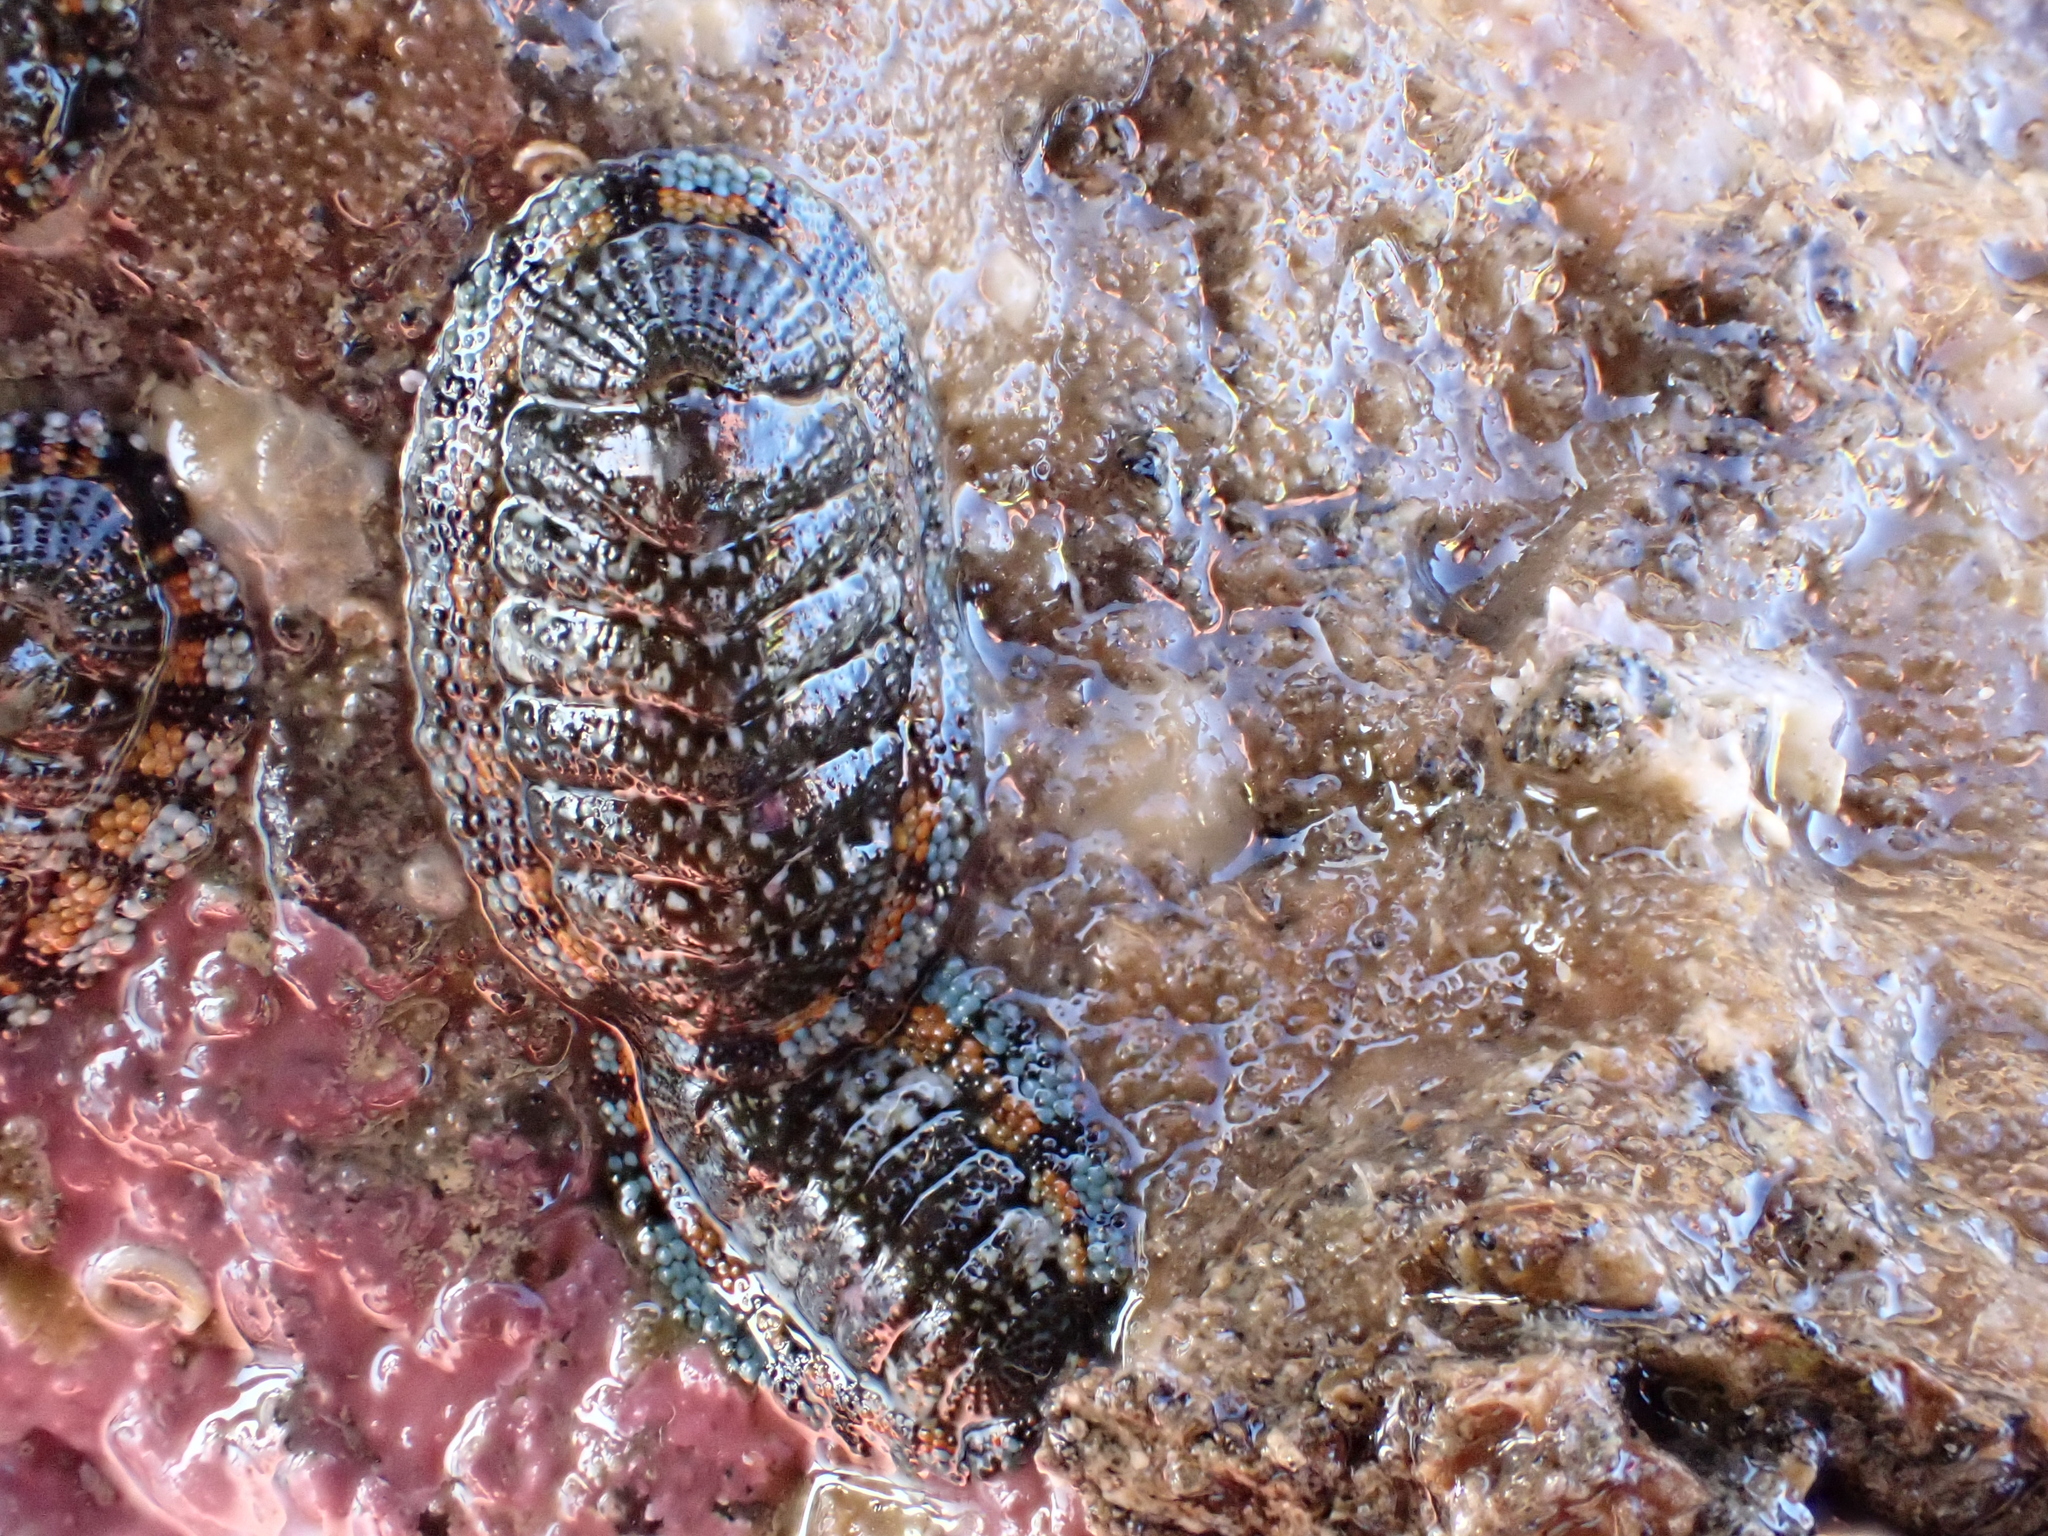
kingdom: Animalia
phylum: Mollusca
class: Polyplacophora
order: Chitonida
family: Chitonidae
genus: Sypharochiton
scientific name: Sypharochiton sinclairi
